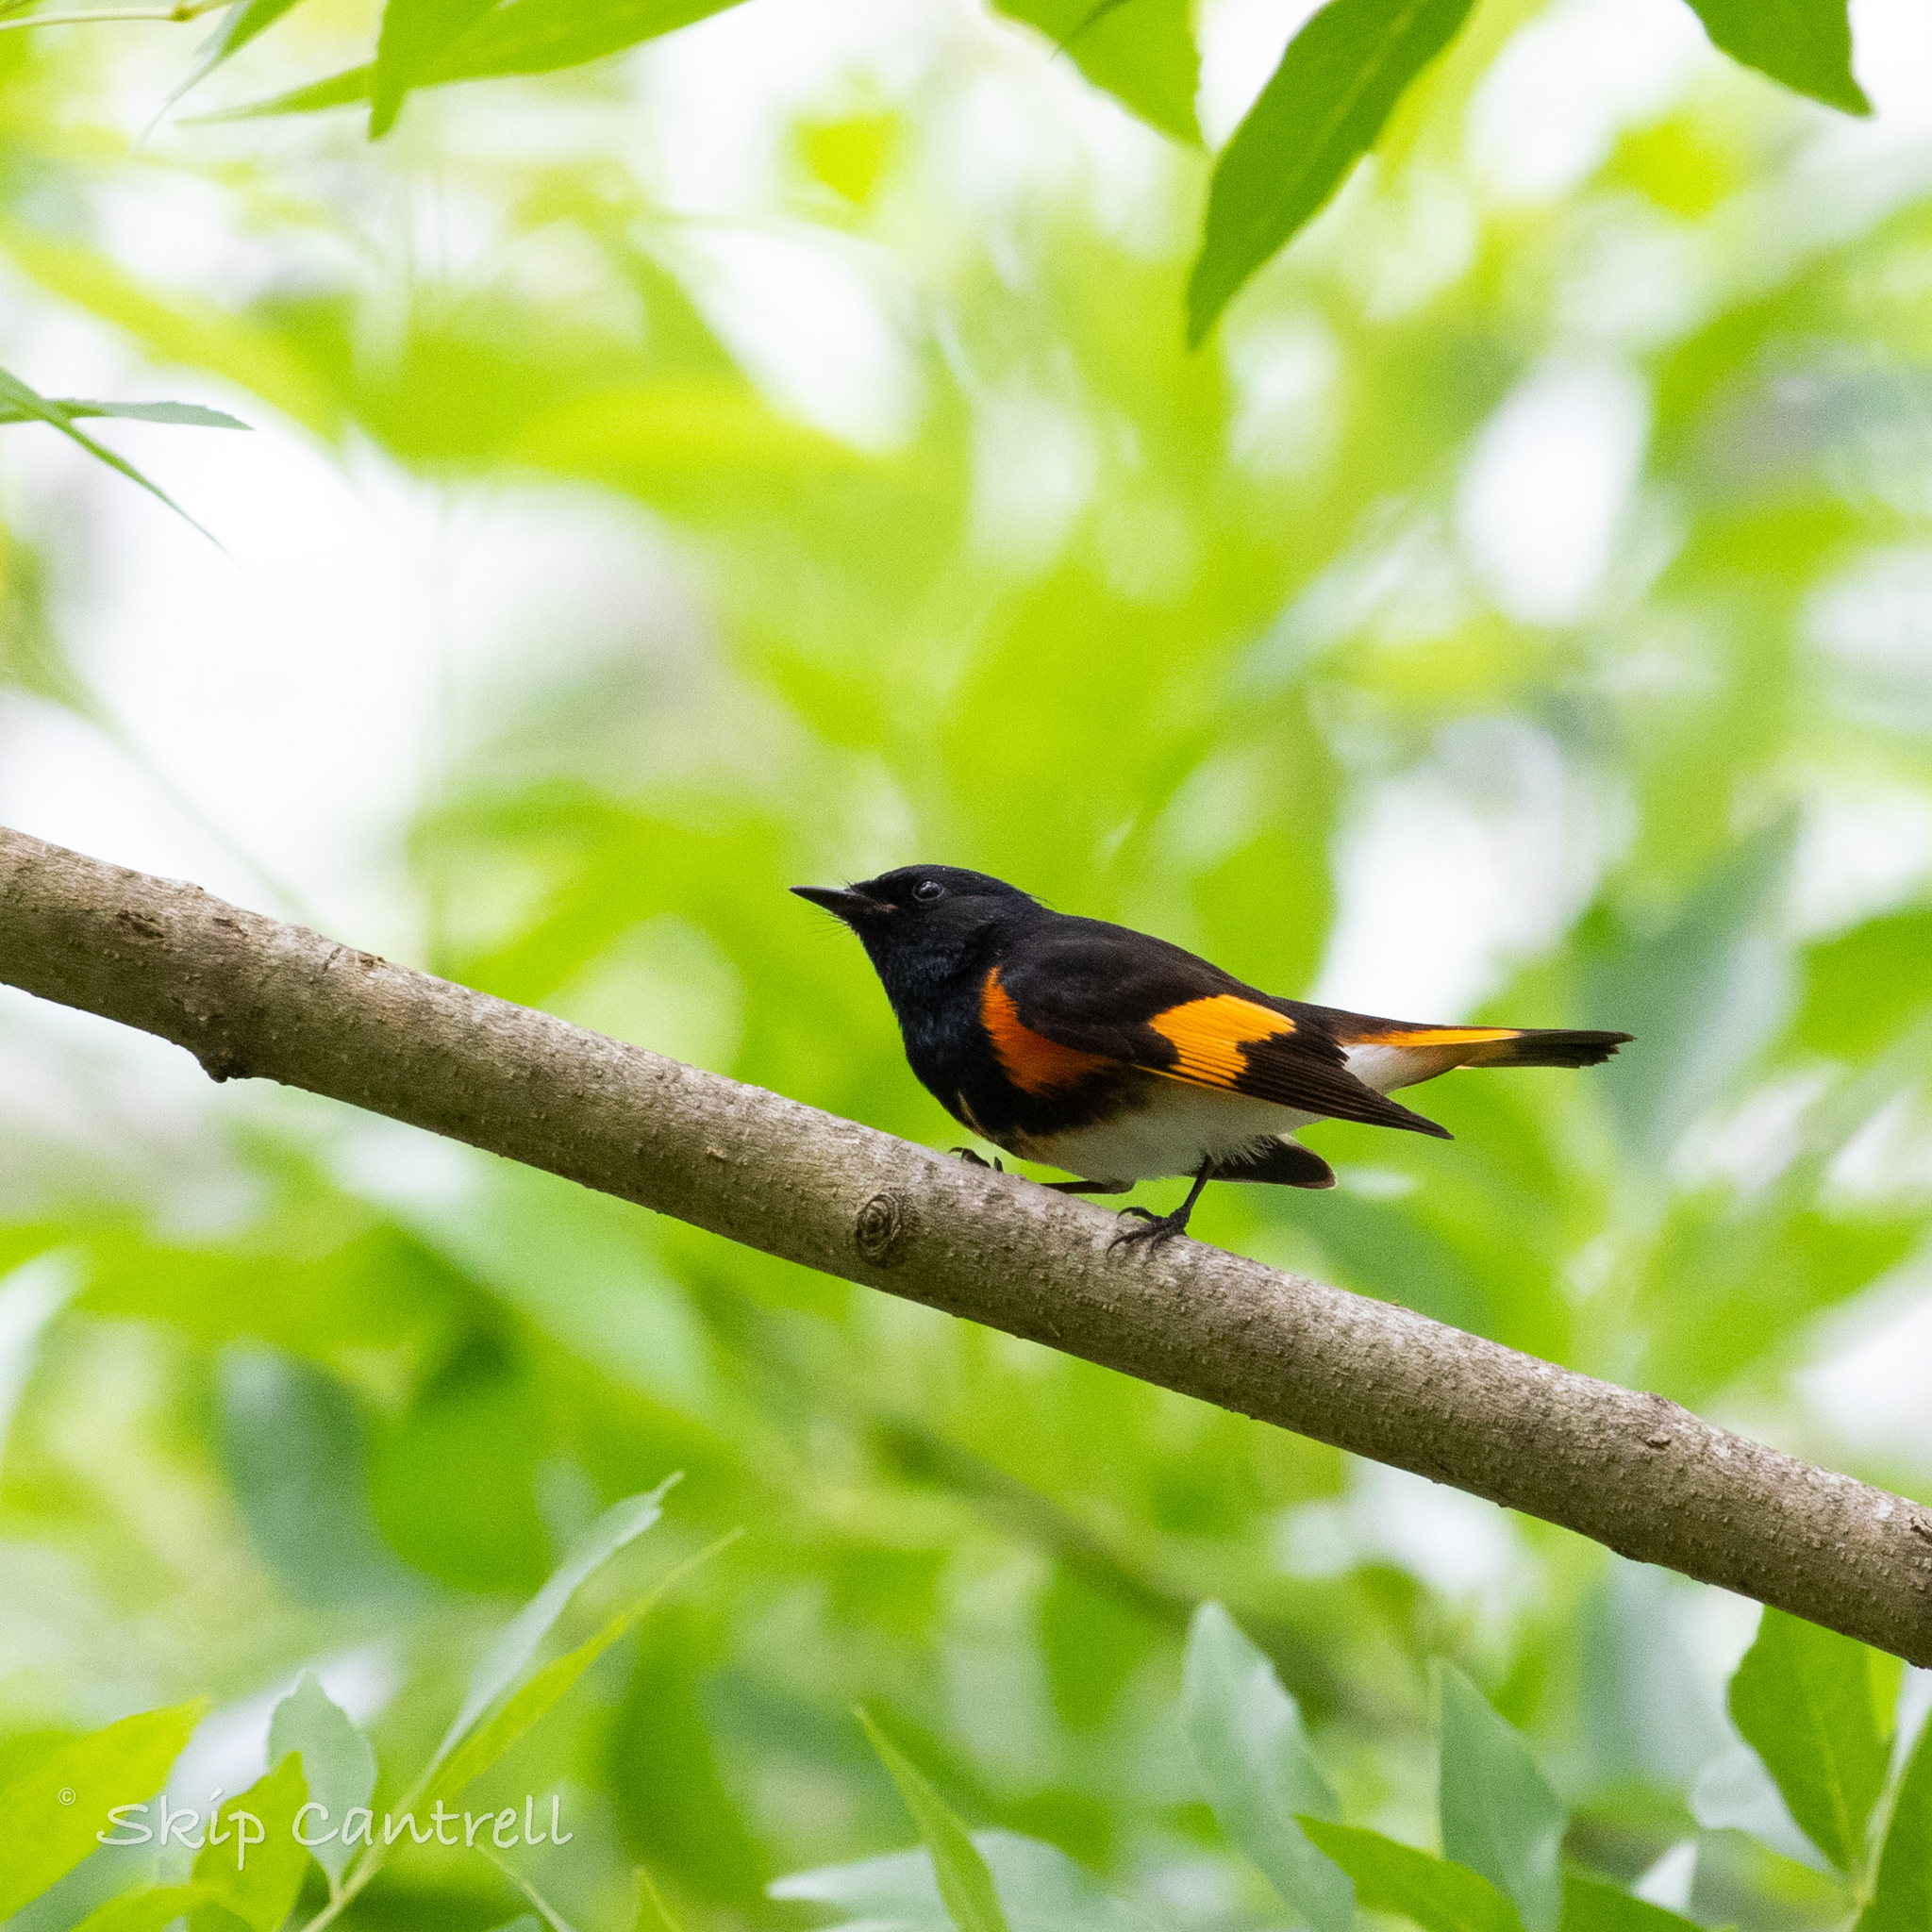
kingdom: Animalia
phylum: Chordata
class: Aves
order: Passeriformes
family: Parulidae
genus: Setophaga
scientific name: Setophaga ruticilla
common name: American redstart
